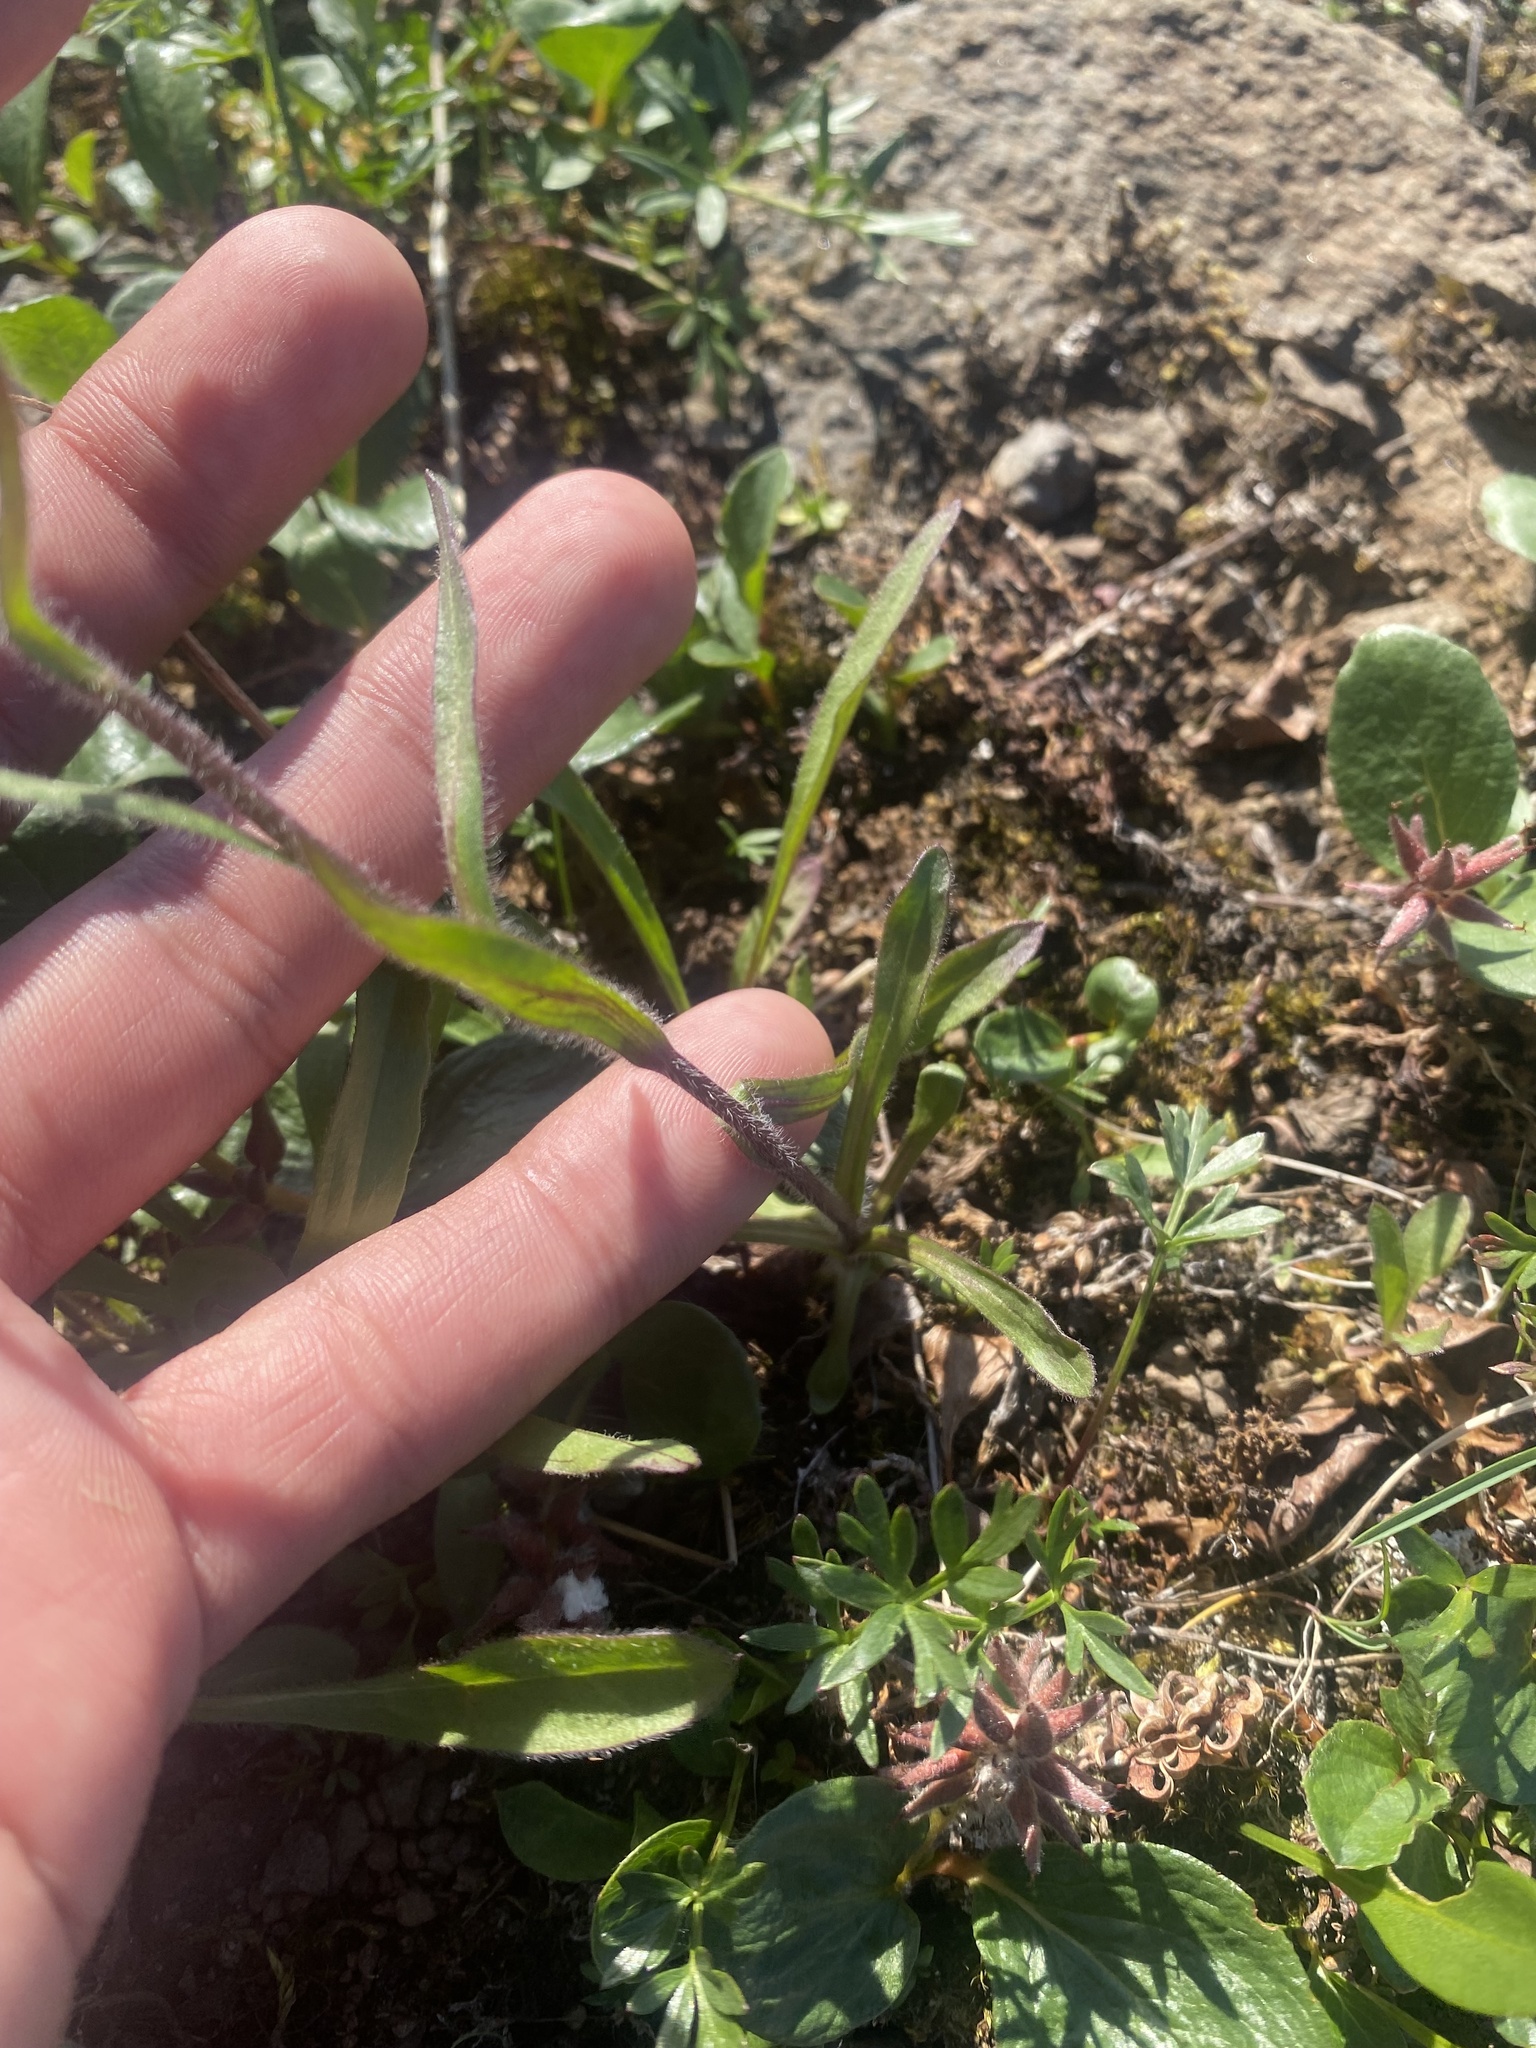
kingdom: Plantae
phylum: Tracheophyta
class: Magnoliopsida
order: Asterales
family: Asteraceae
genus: Erigeron
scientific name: Erigeron eriocephalus
